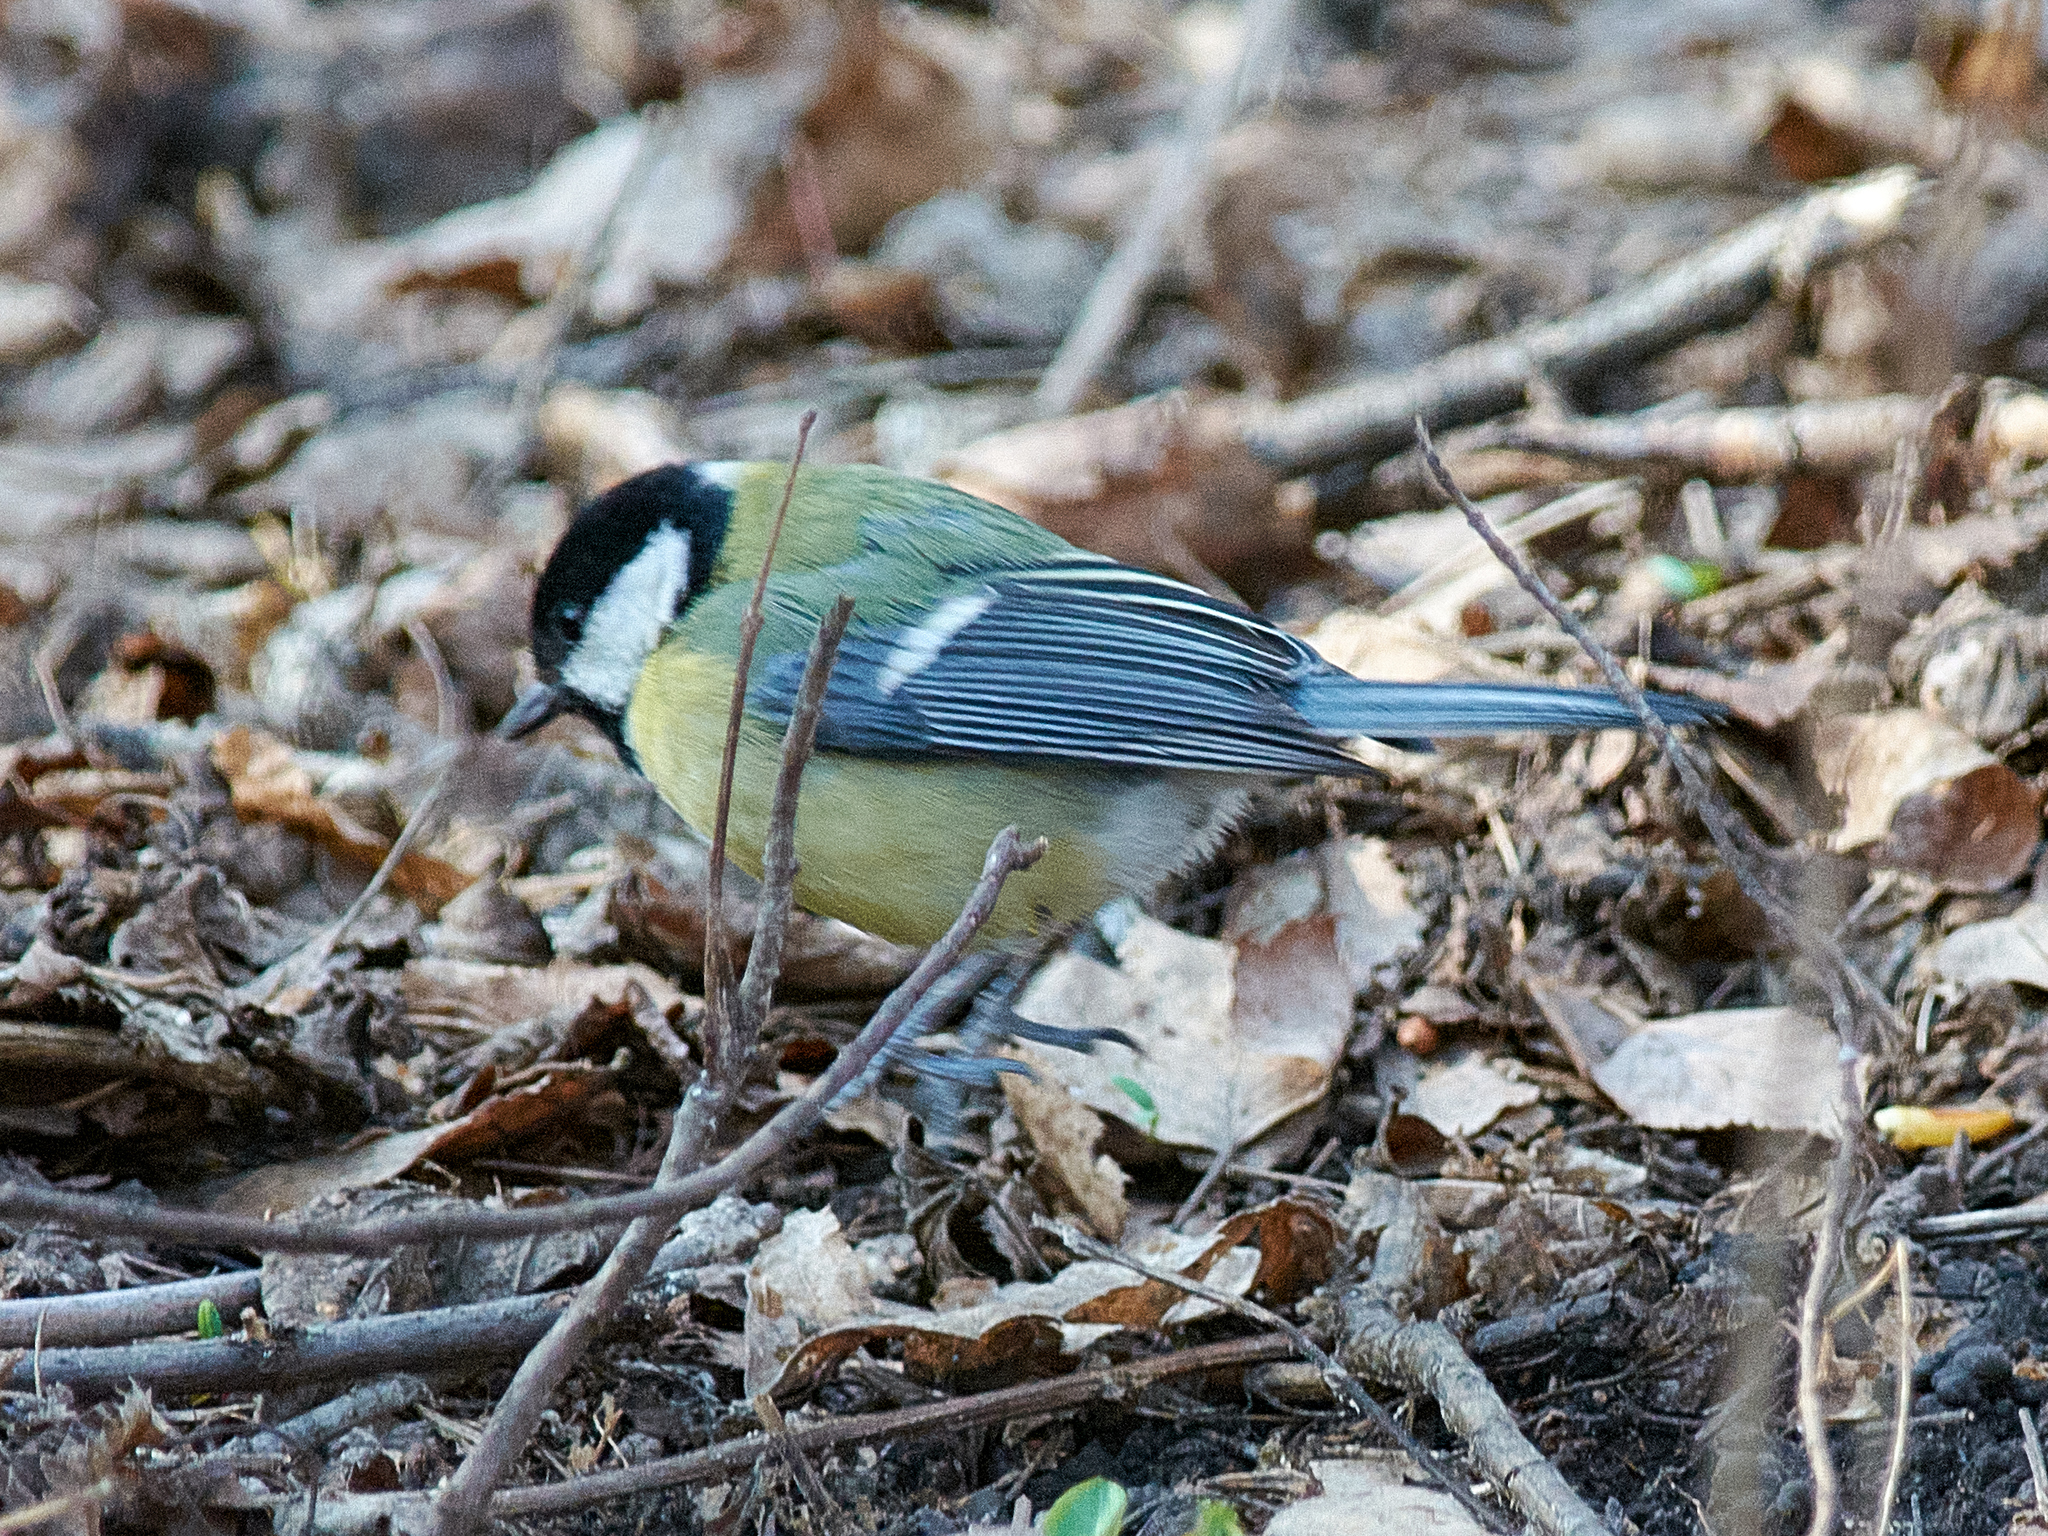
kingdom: Animalia
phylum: Chordata
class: Aves
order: Passeriformes
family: Paridae
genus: Parus
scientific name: Parus major
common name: Great tit
